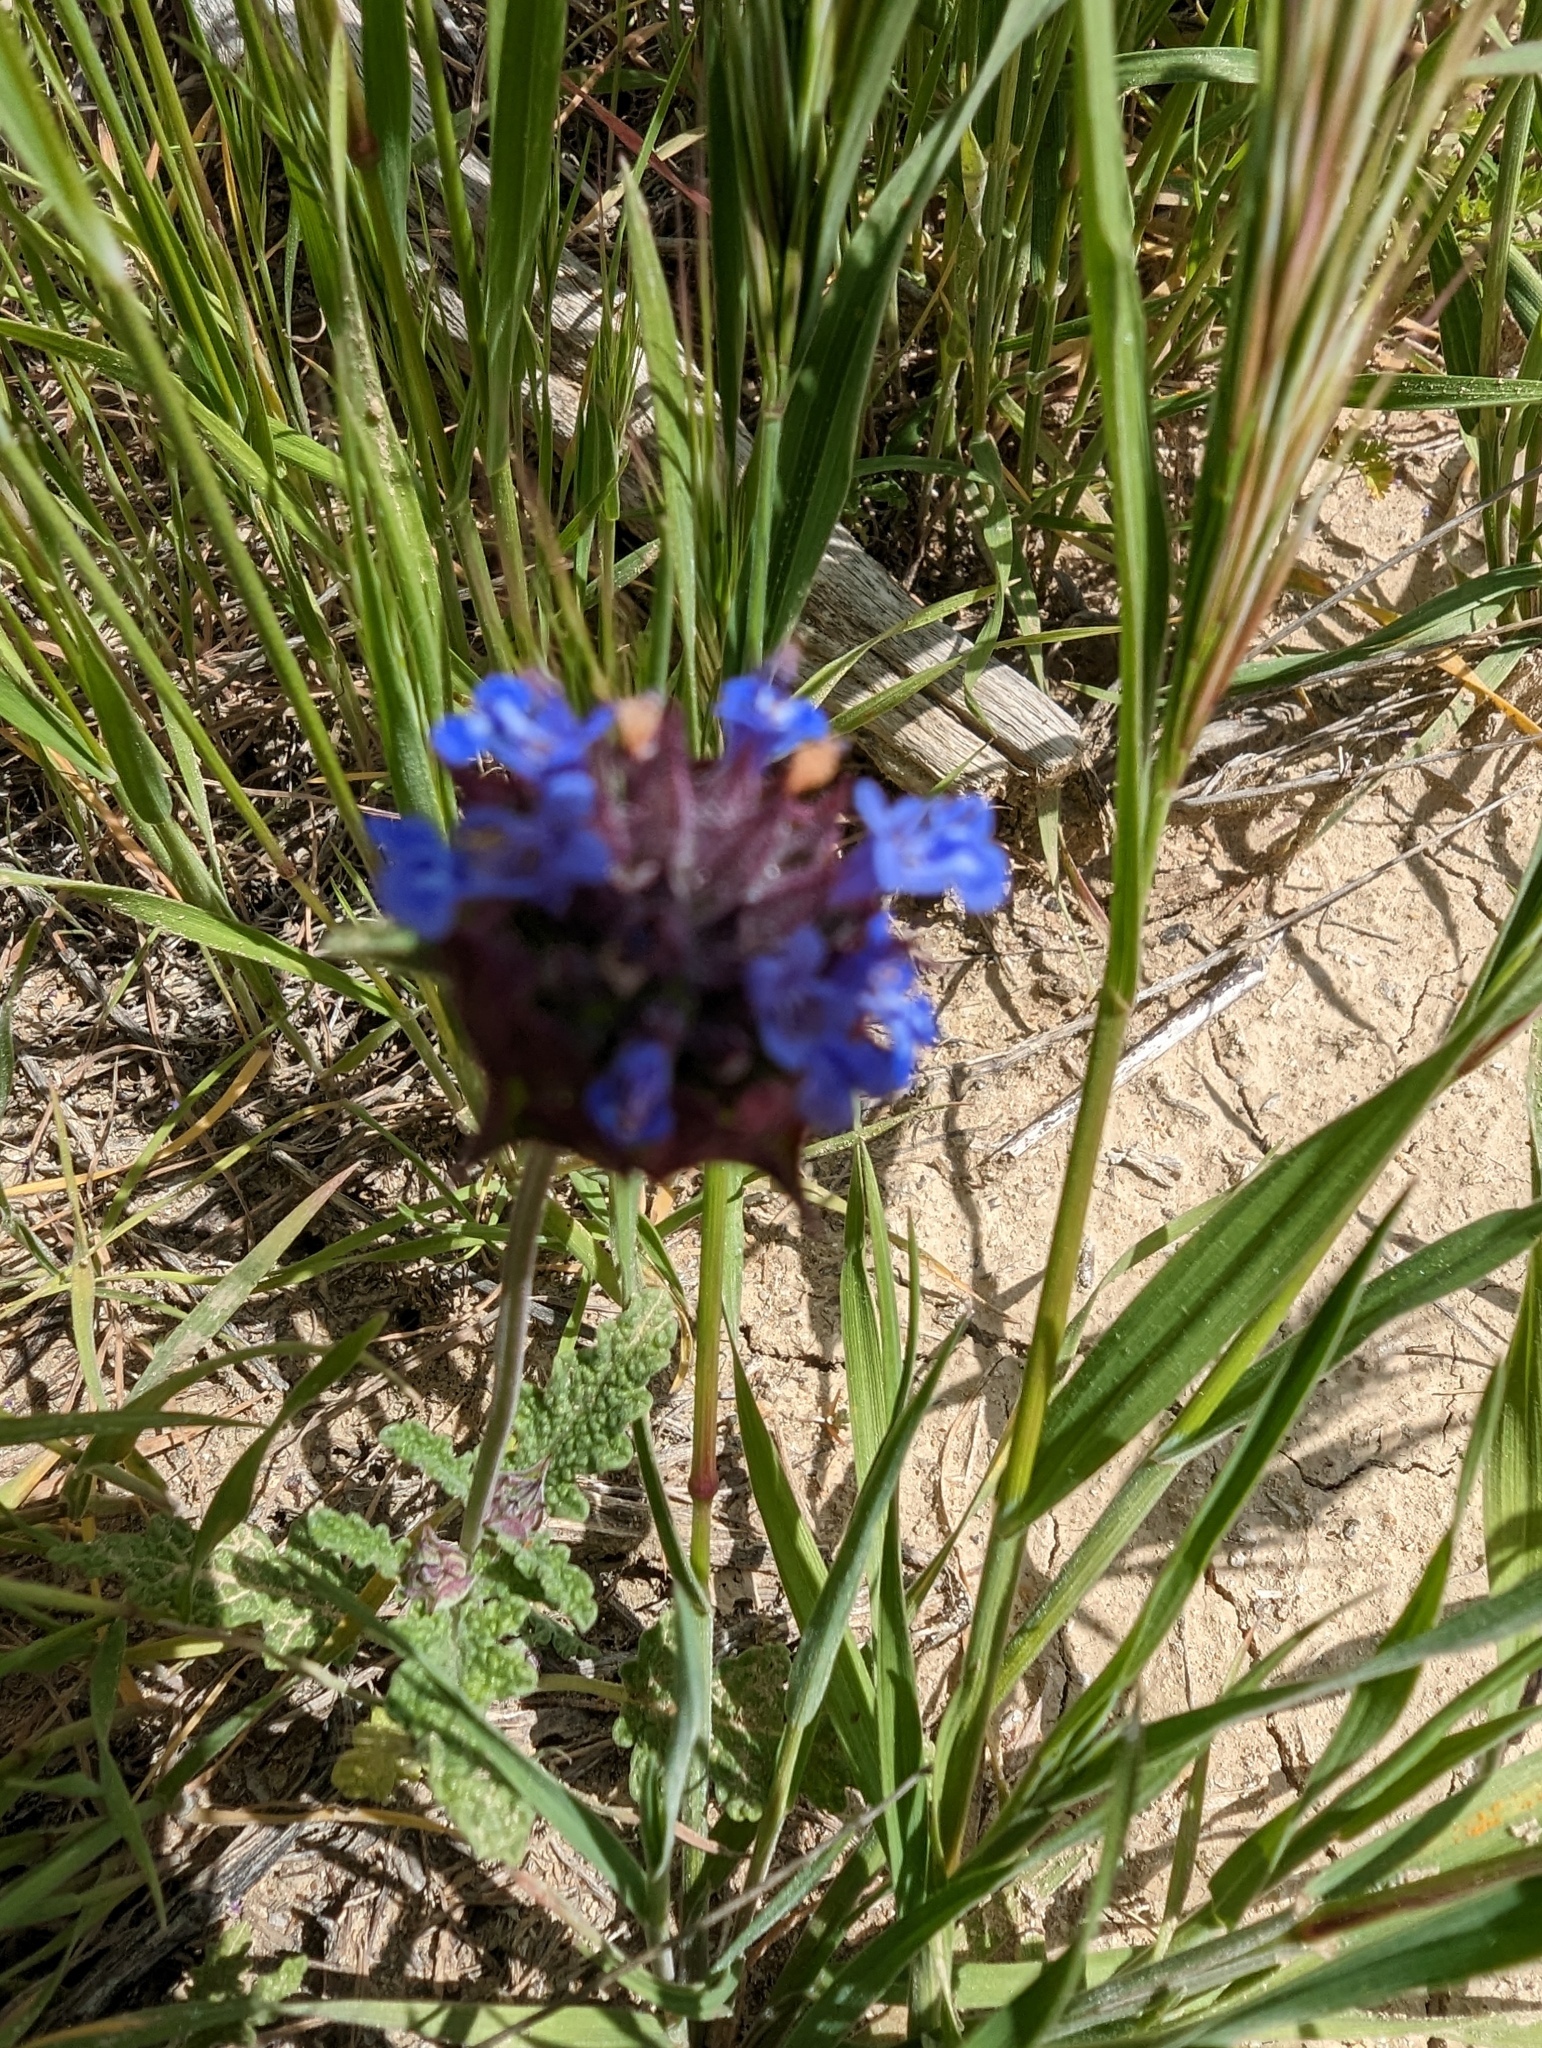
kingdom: Plantae
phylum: Tracheophyta
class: Magnoliopsida
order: Lamiales
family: Lamiaceae
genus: Salvia
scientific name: Salvia columbariae
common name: Chia
